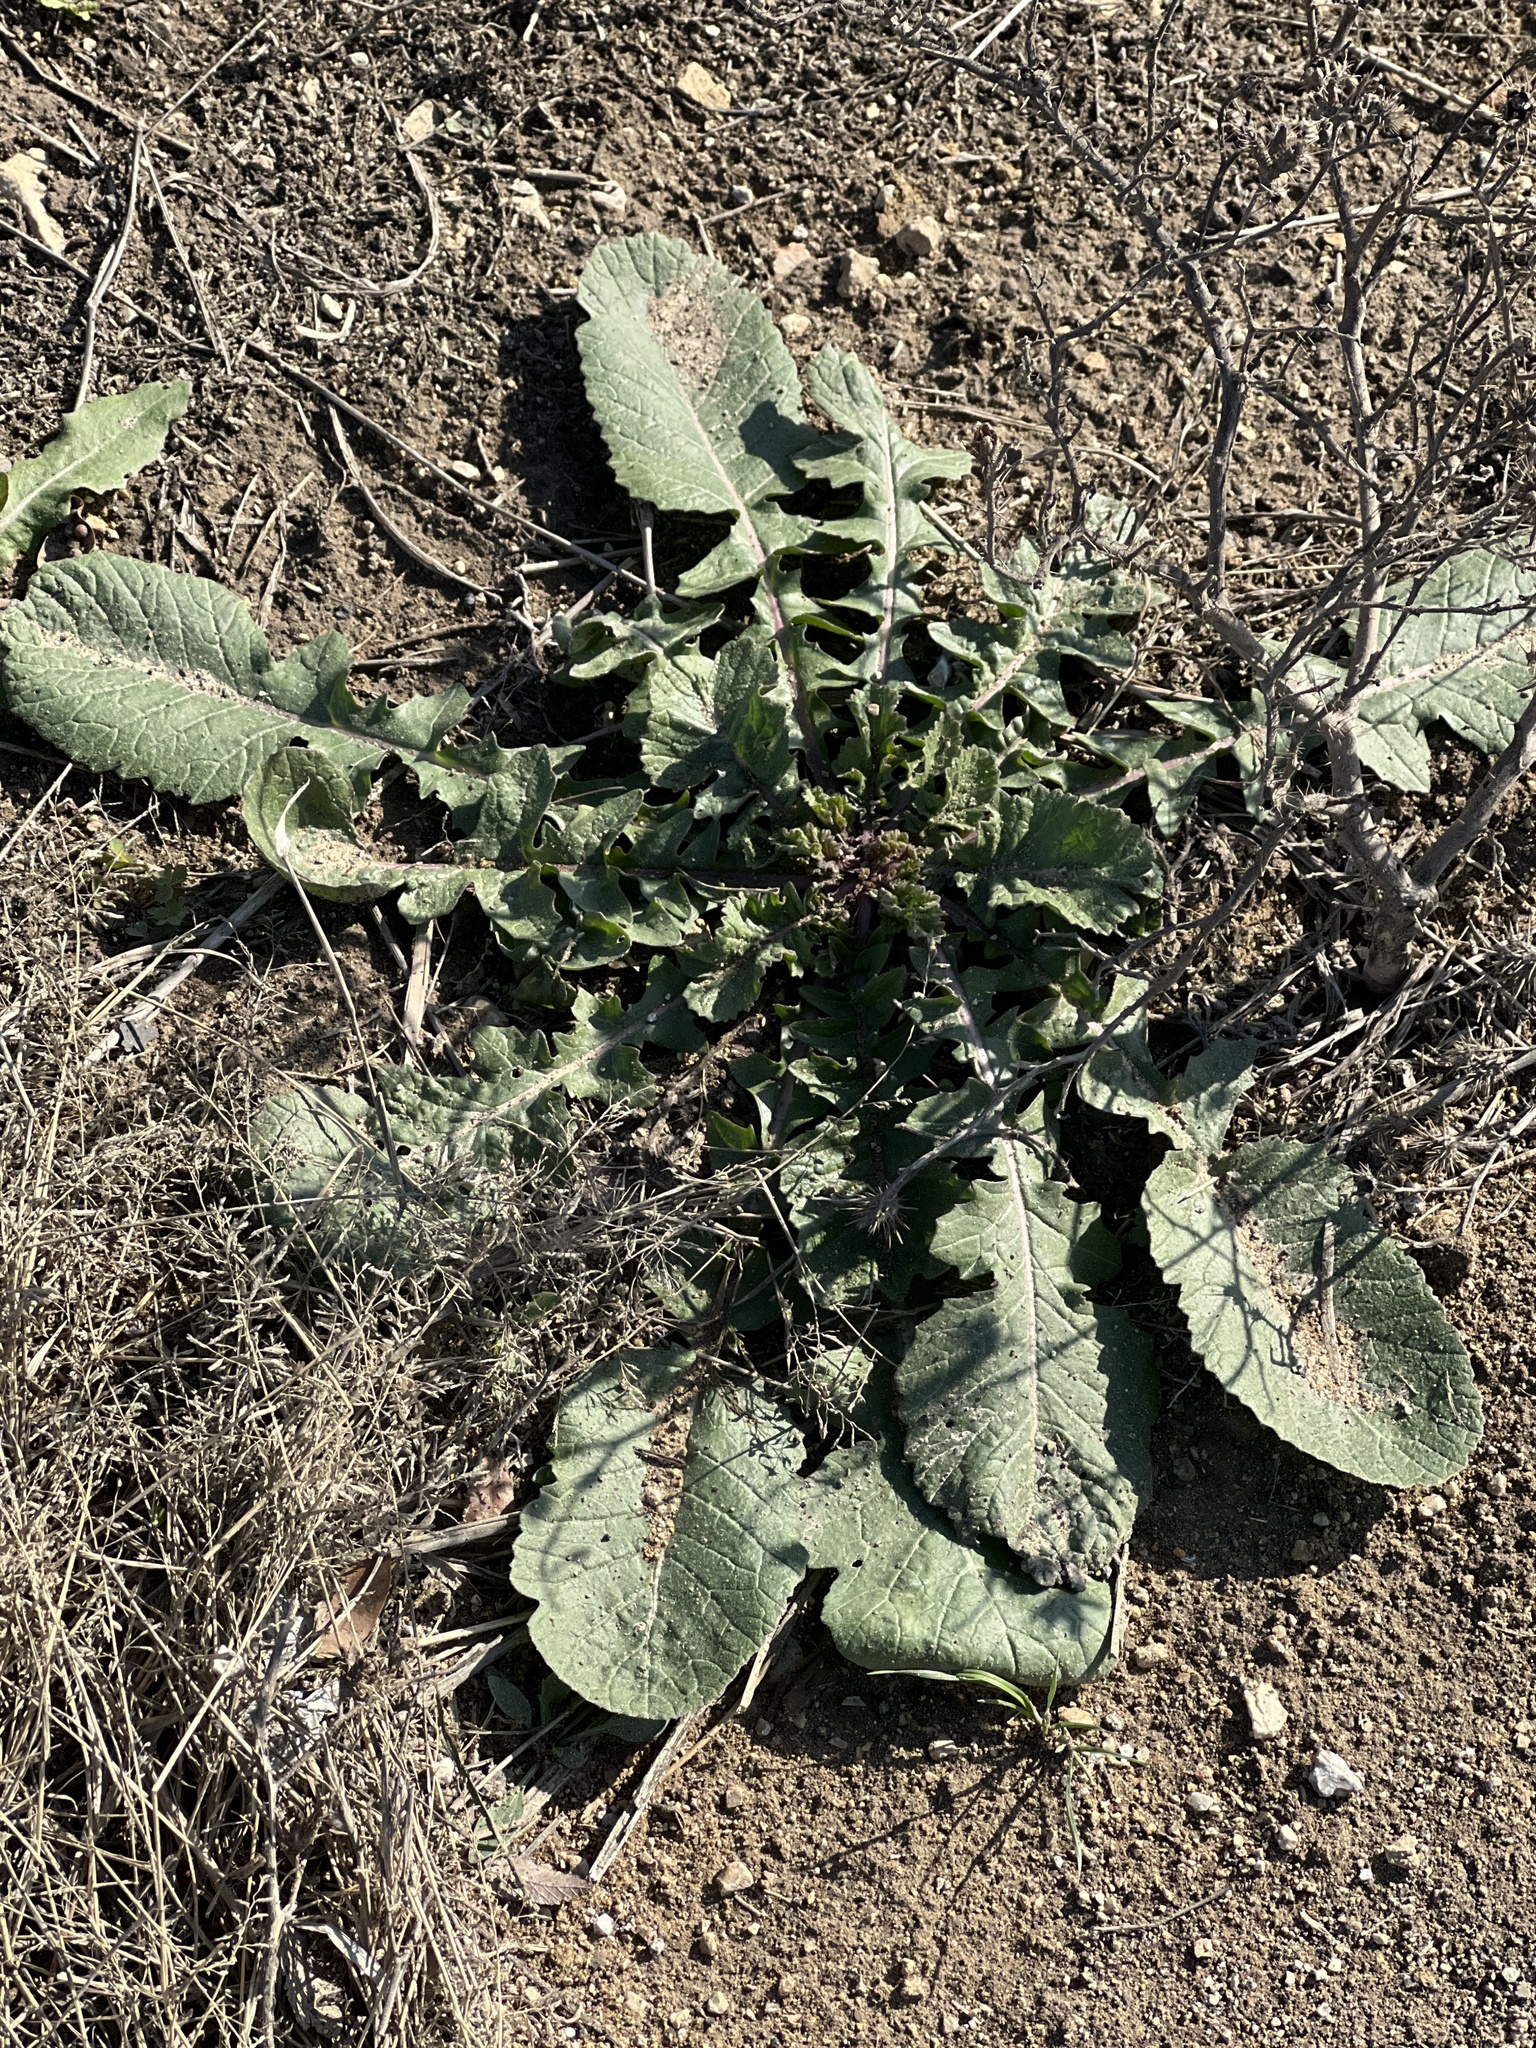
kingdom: Plantae
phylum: Tracheophyta
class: Magnoliopsida
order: Brassicales
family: Brassicaceae
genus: Rapistrum
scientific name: Rapistrum rugosum
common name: Annual bastardcabbage
